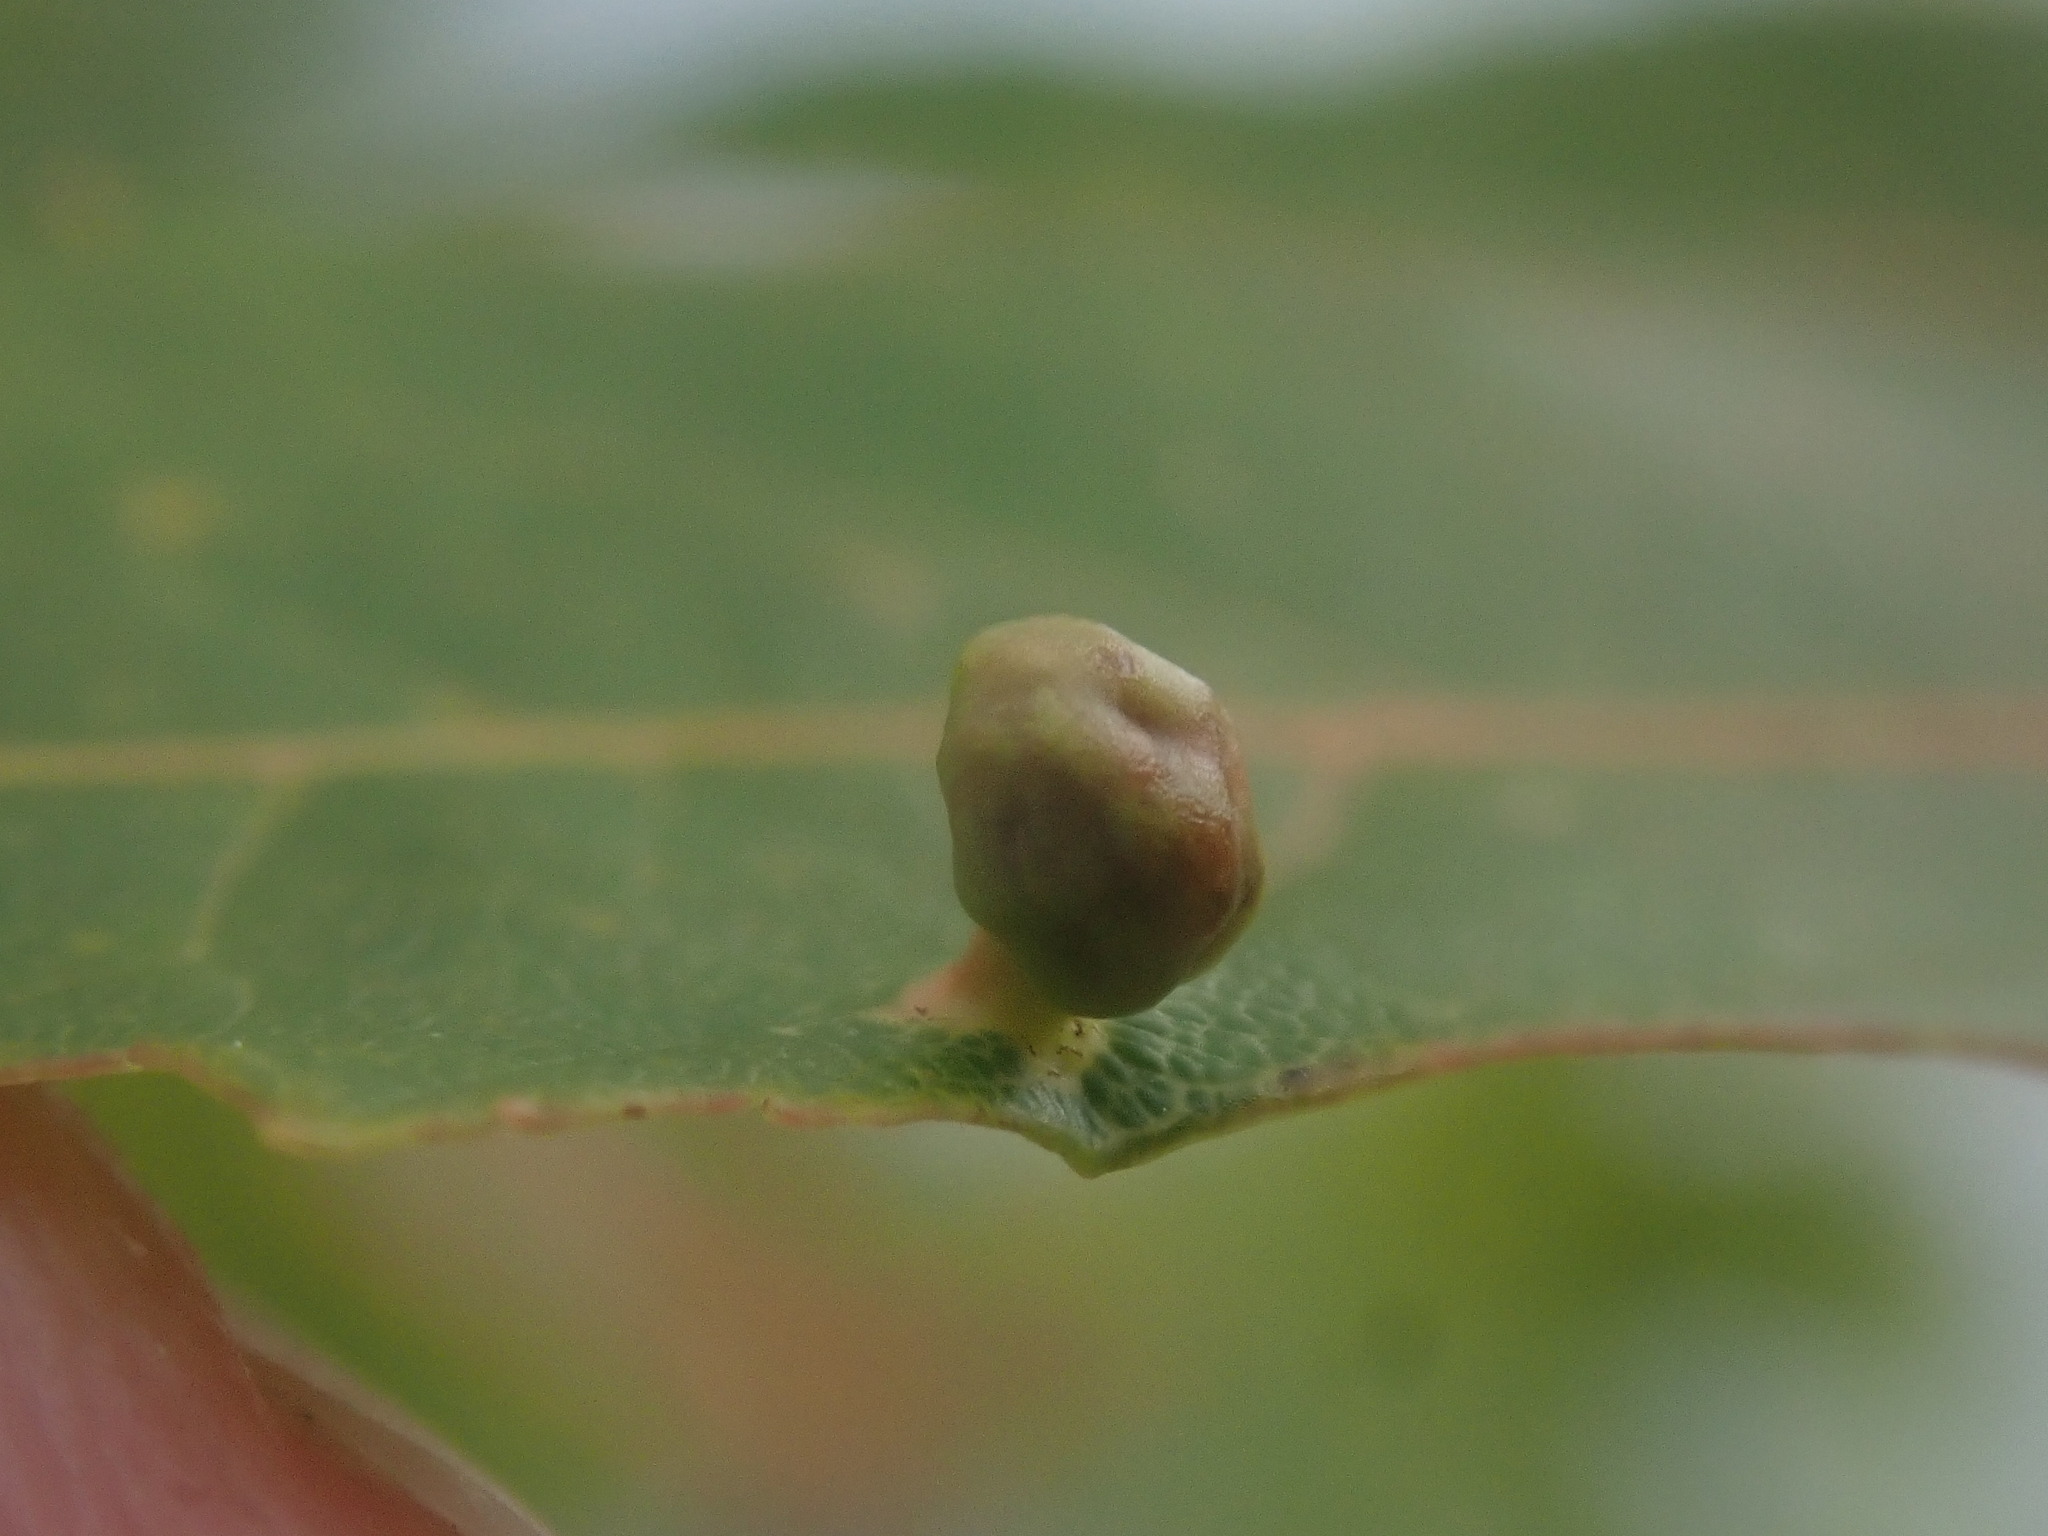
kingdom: Animalia
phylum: Arthropoda
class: Arachnida
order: Trombidiformes
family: Eriophyidae
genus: Vasates
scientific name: Vasates quadripedes
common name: Maple bladder gall mite
